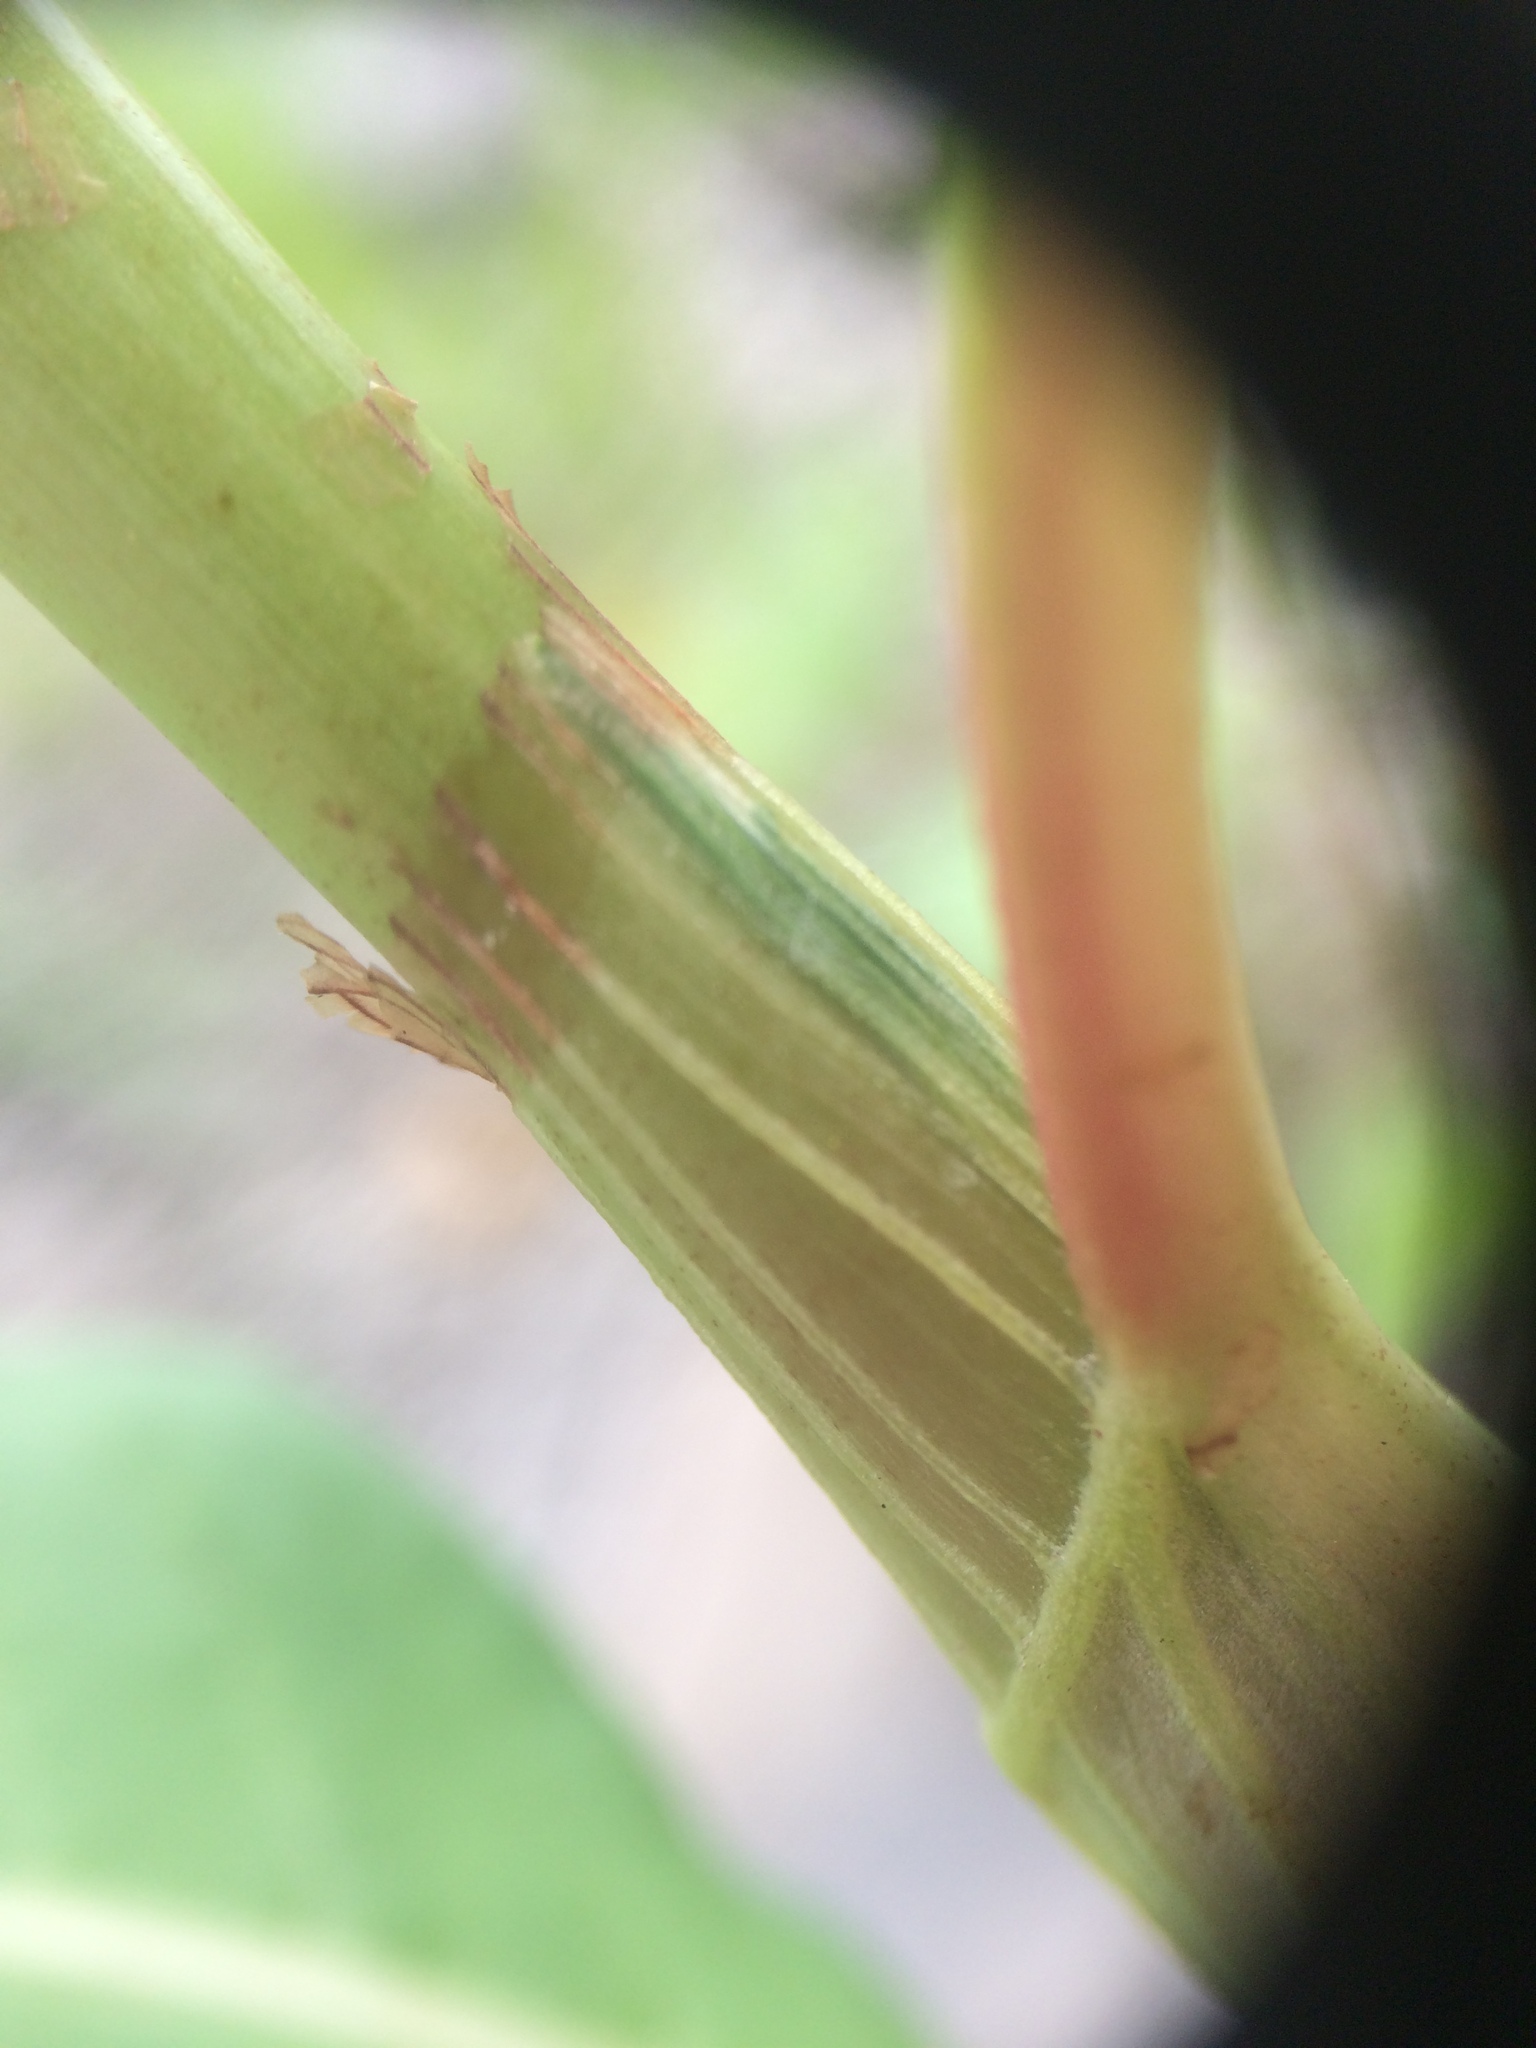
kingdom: Plantae
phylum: Tracheophyta
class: Magnoliopsida
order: Caryophyllales
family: Polygonaceae
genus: Persicaria
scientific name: Persicaria lapathifolia
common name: Curlytop knotweed
